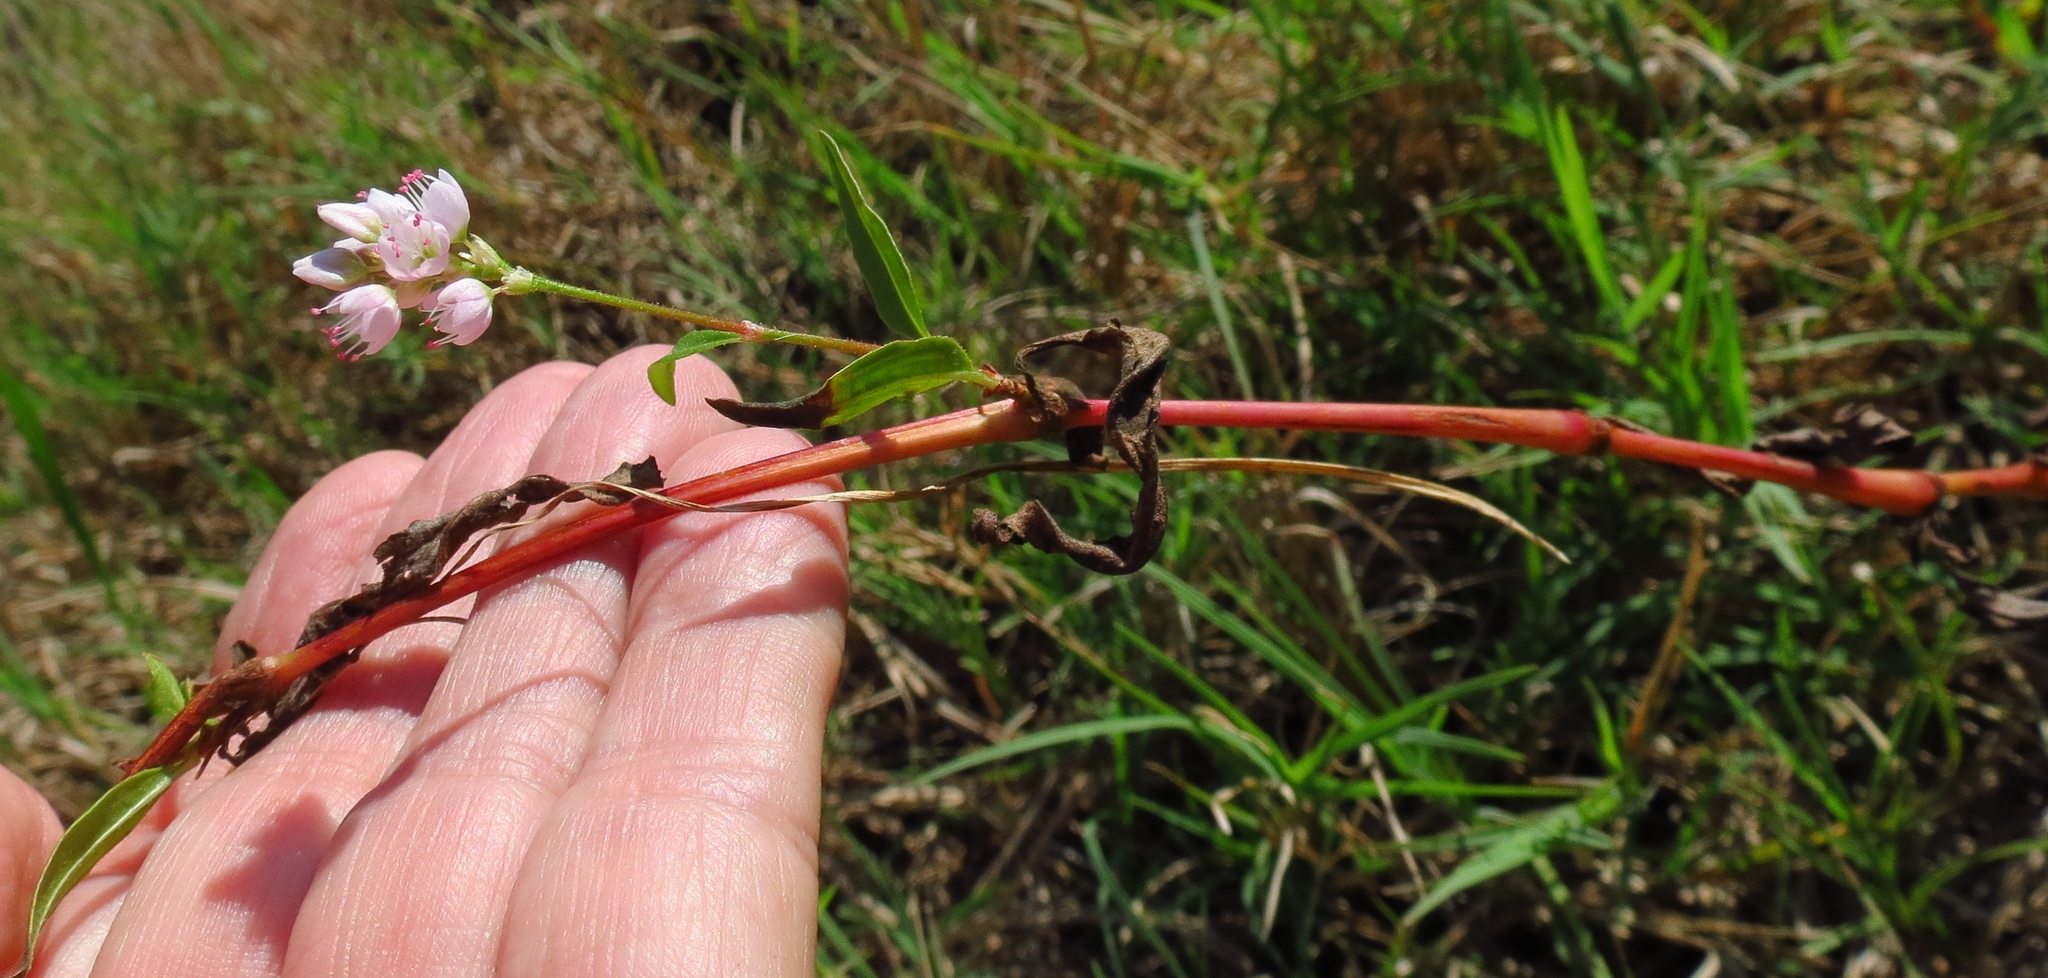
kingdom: Plantae
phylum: Tracheophyta
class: Magnoliopsida
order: Caryophyllales
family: Polygonaceae
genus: Persicaria
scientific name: Persicaria pensylvanica
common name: Pinkweed
